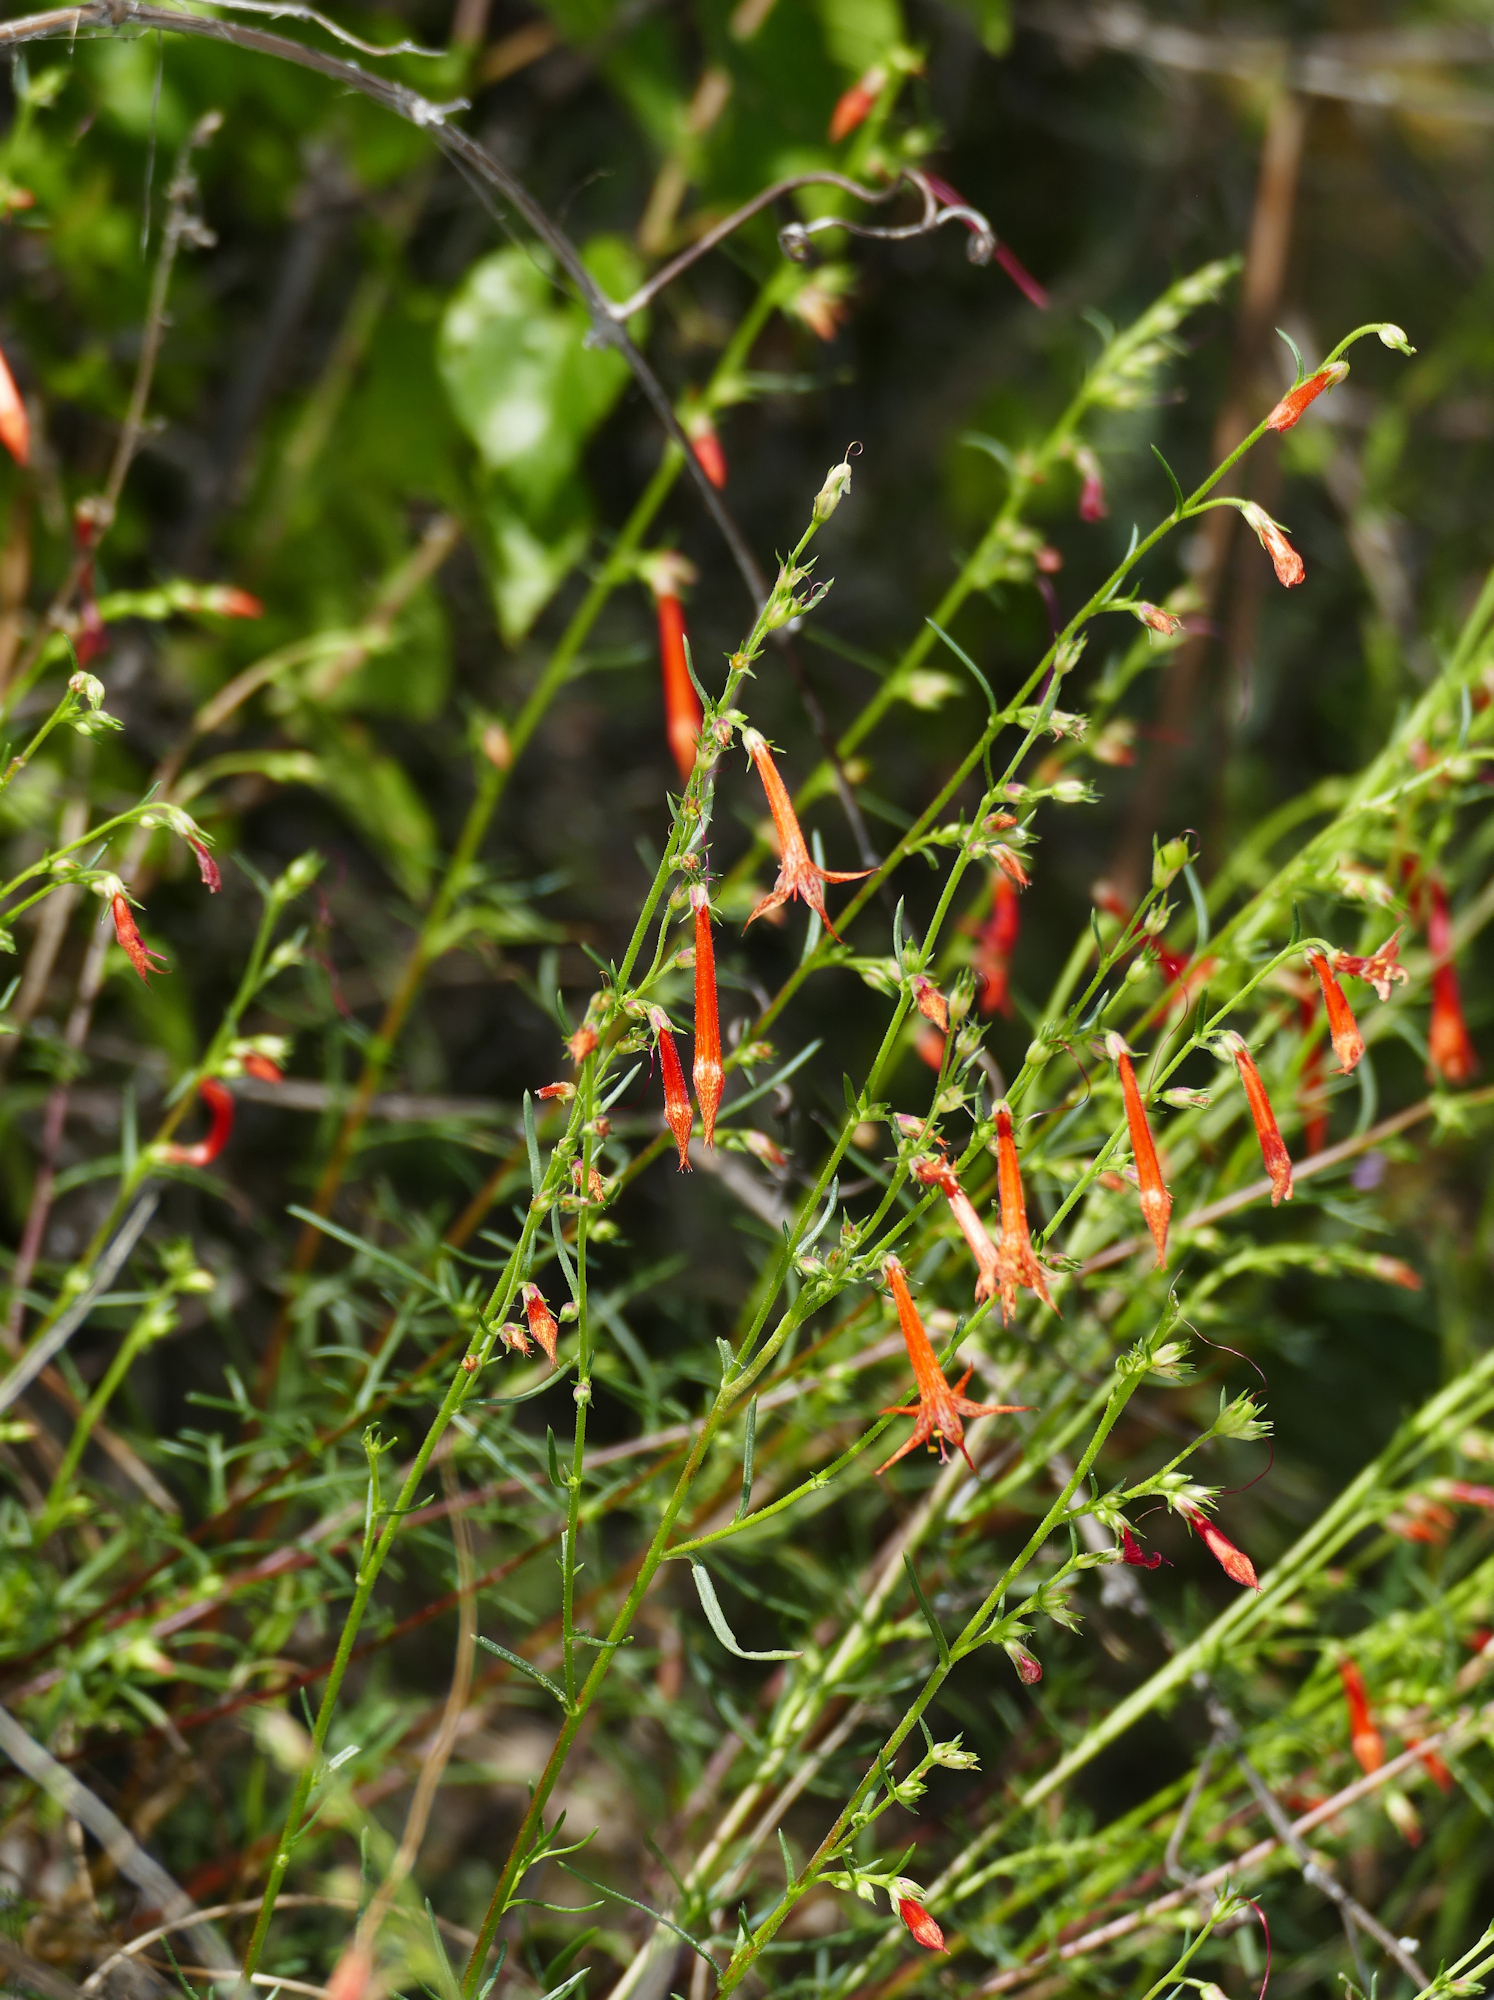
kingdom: Plantae
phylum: Tracheophyta
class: Magnoliopsida
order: Ericales
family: Polemoniaceae
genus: Ipomopsis
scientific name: Ipomopsis aggregata
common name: Scarlet gilia
